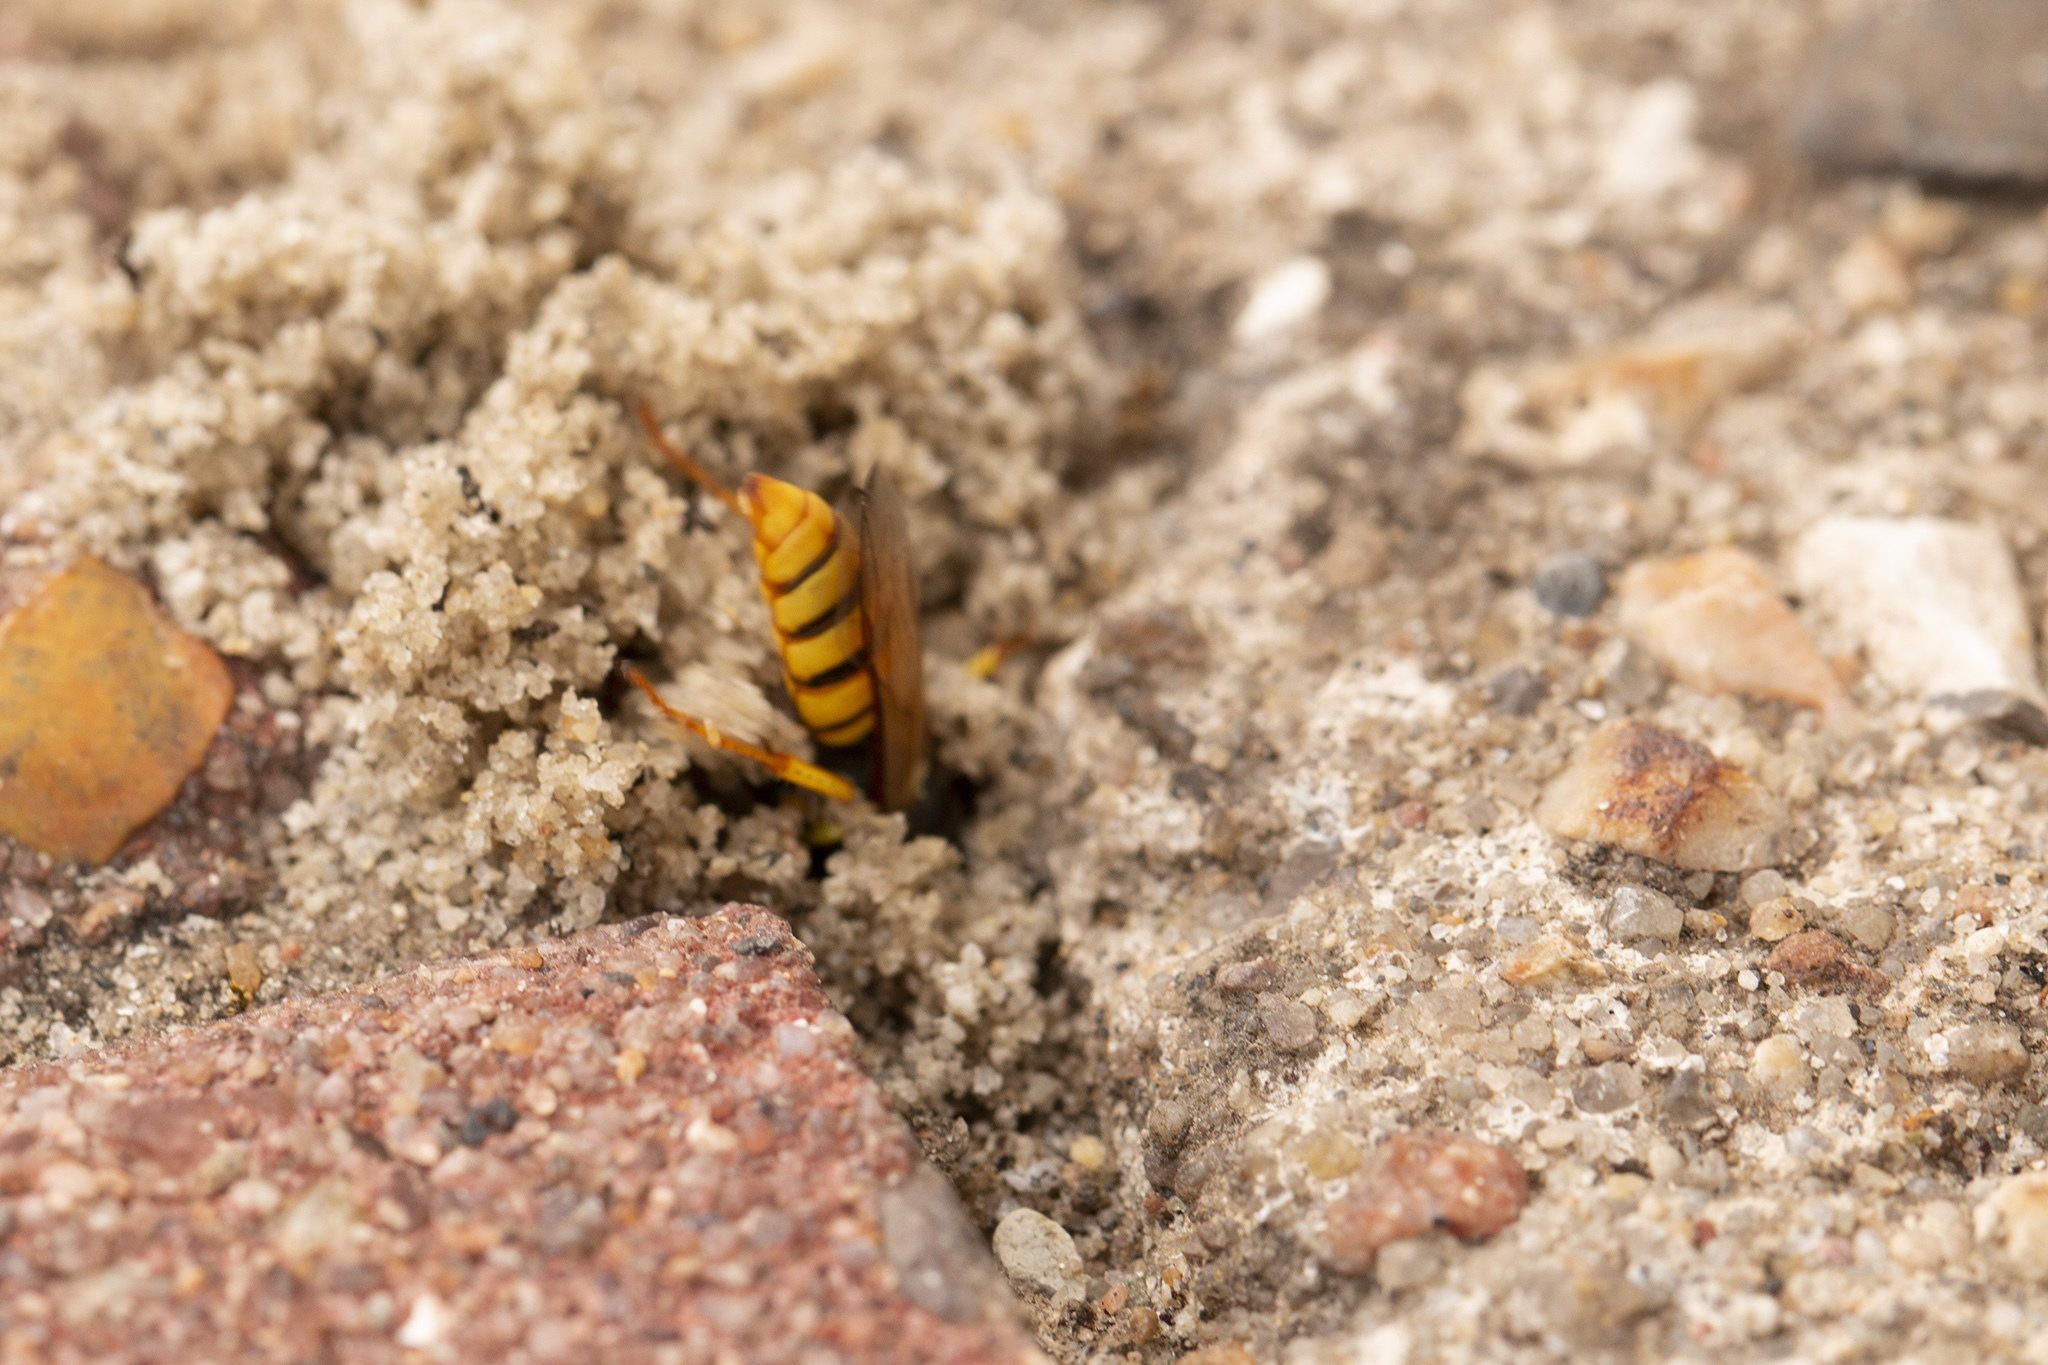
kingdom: Animalia
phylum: Arthropoda
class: Insecta
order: Hymenoptera
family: Crabronidae
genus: Philanthus
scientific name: Philanthus triangulum
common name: Bee wolf
